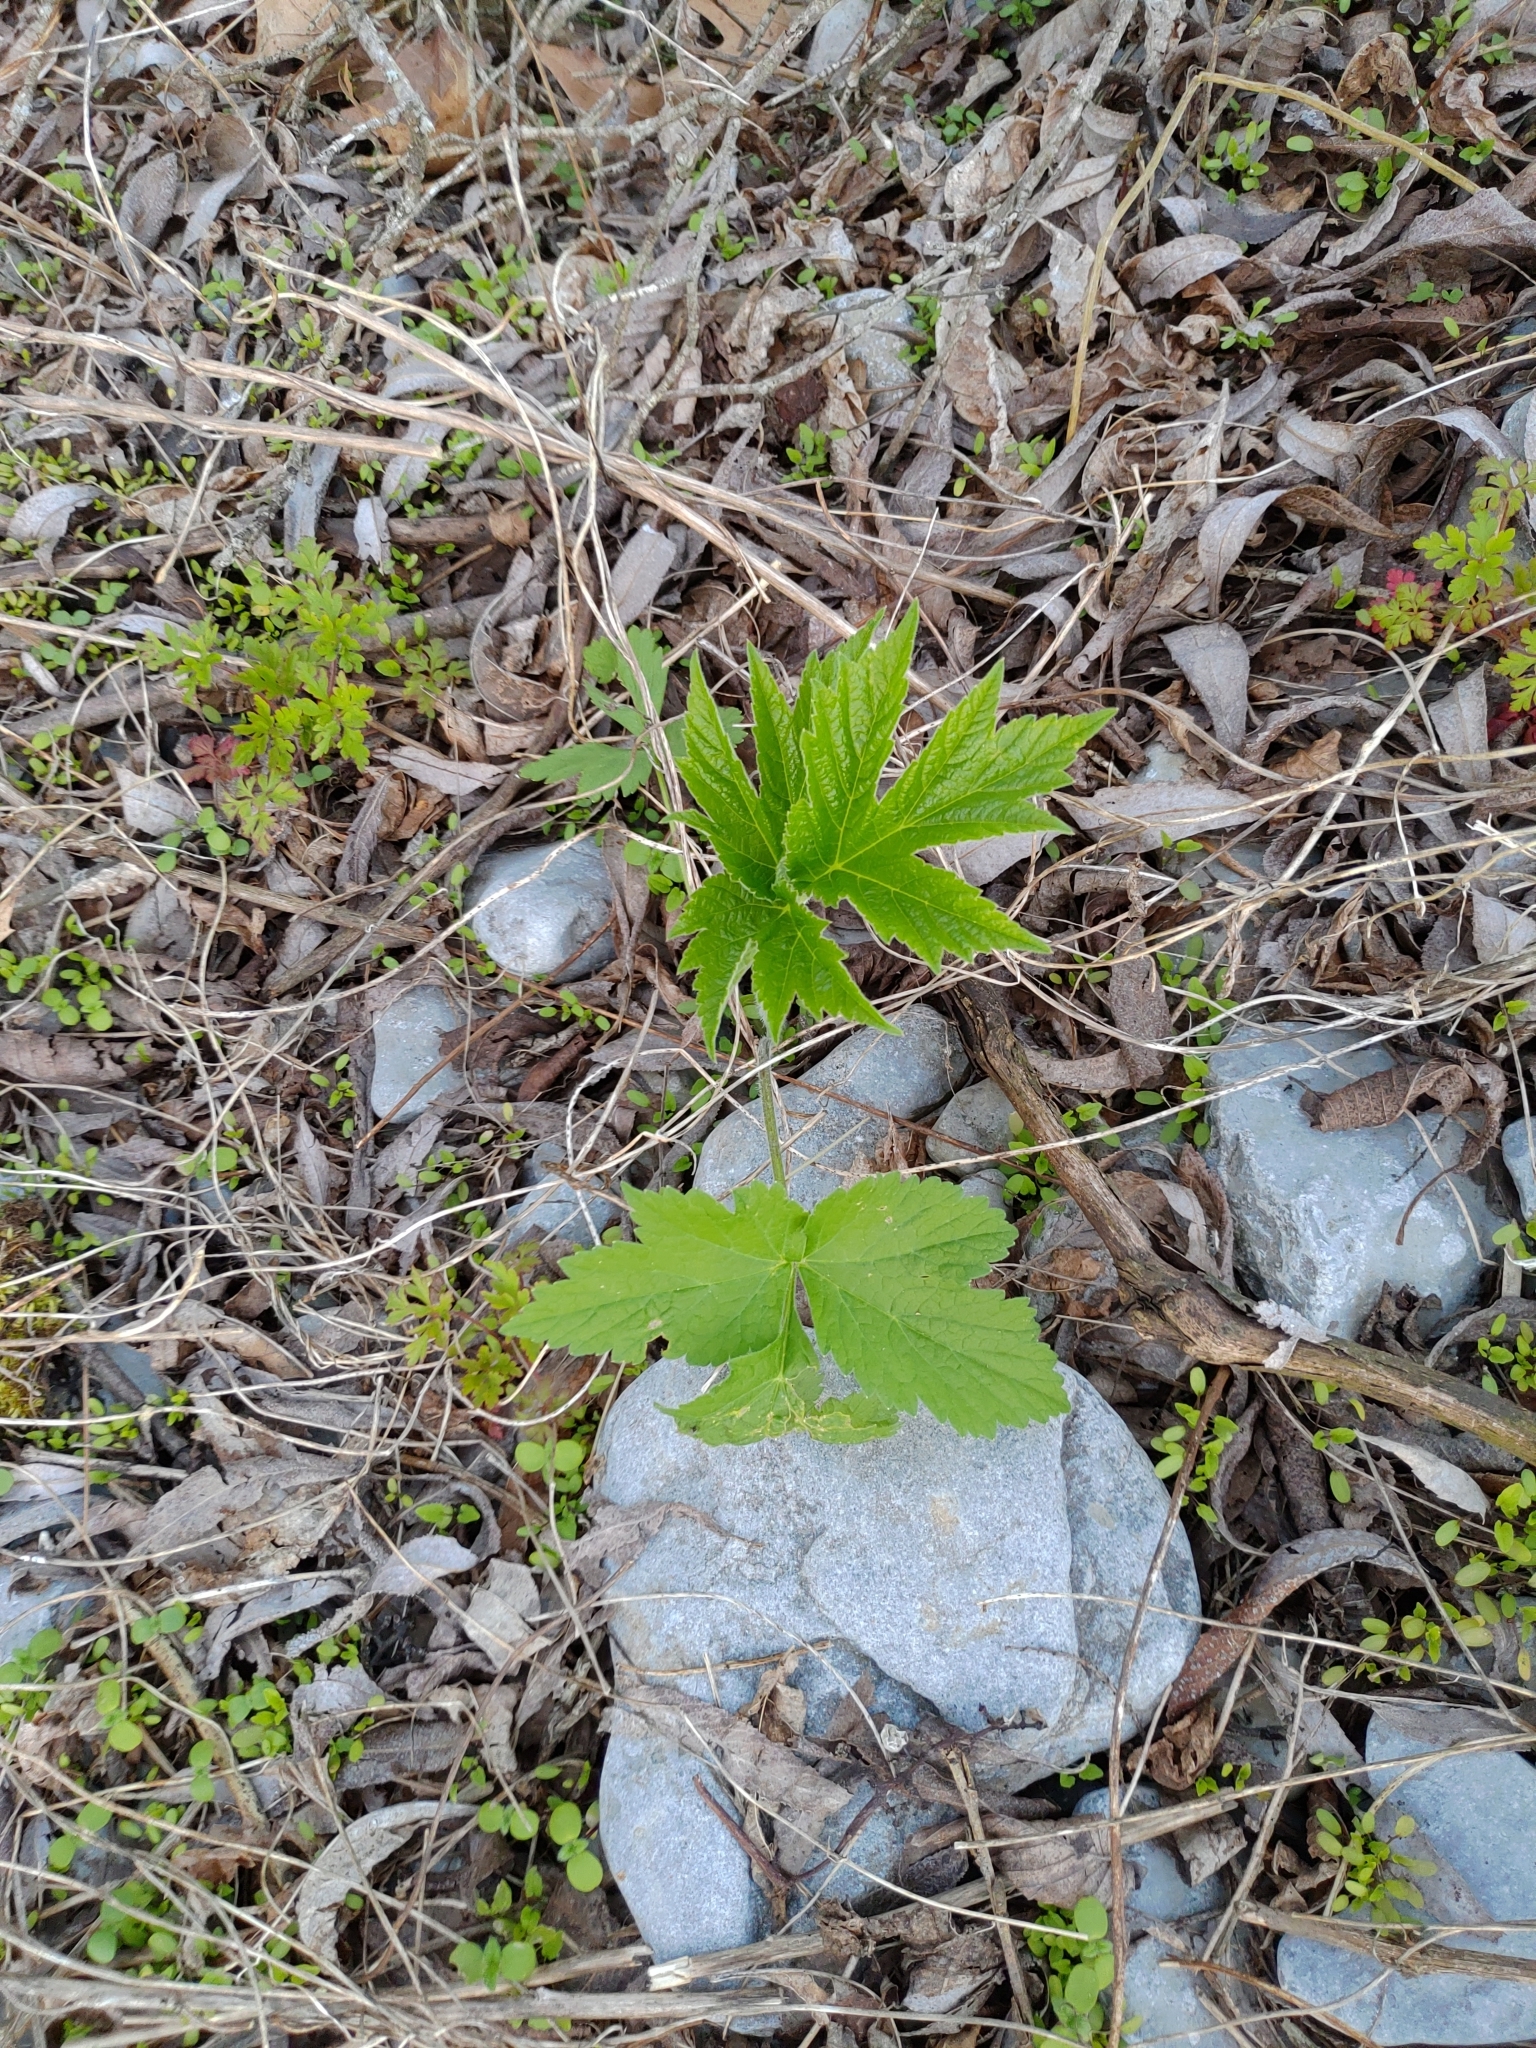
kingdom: Plantae
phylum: Tracheophyta
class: Magnoliopsida
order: Apiales
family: Apiaceae
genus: Heracleum
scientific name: Heracleum maximum
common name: American cow parsnip
